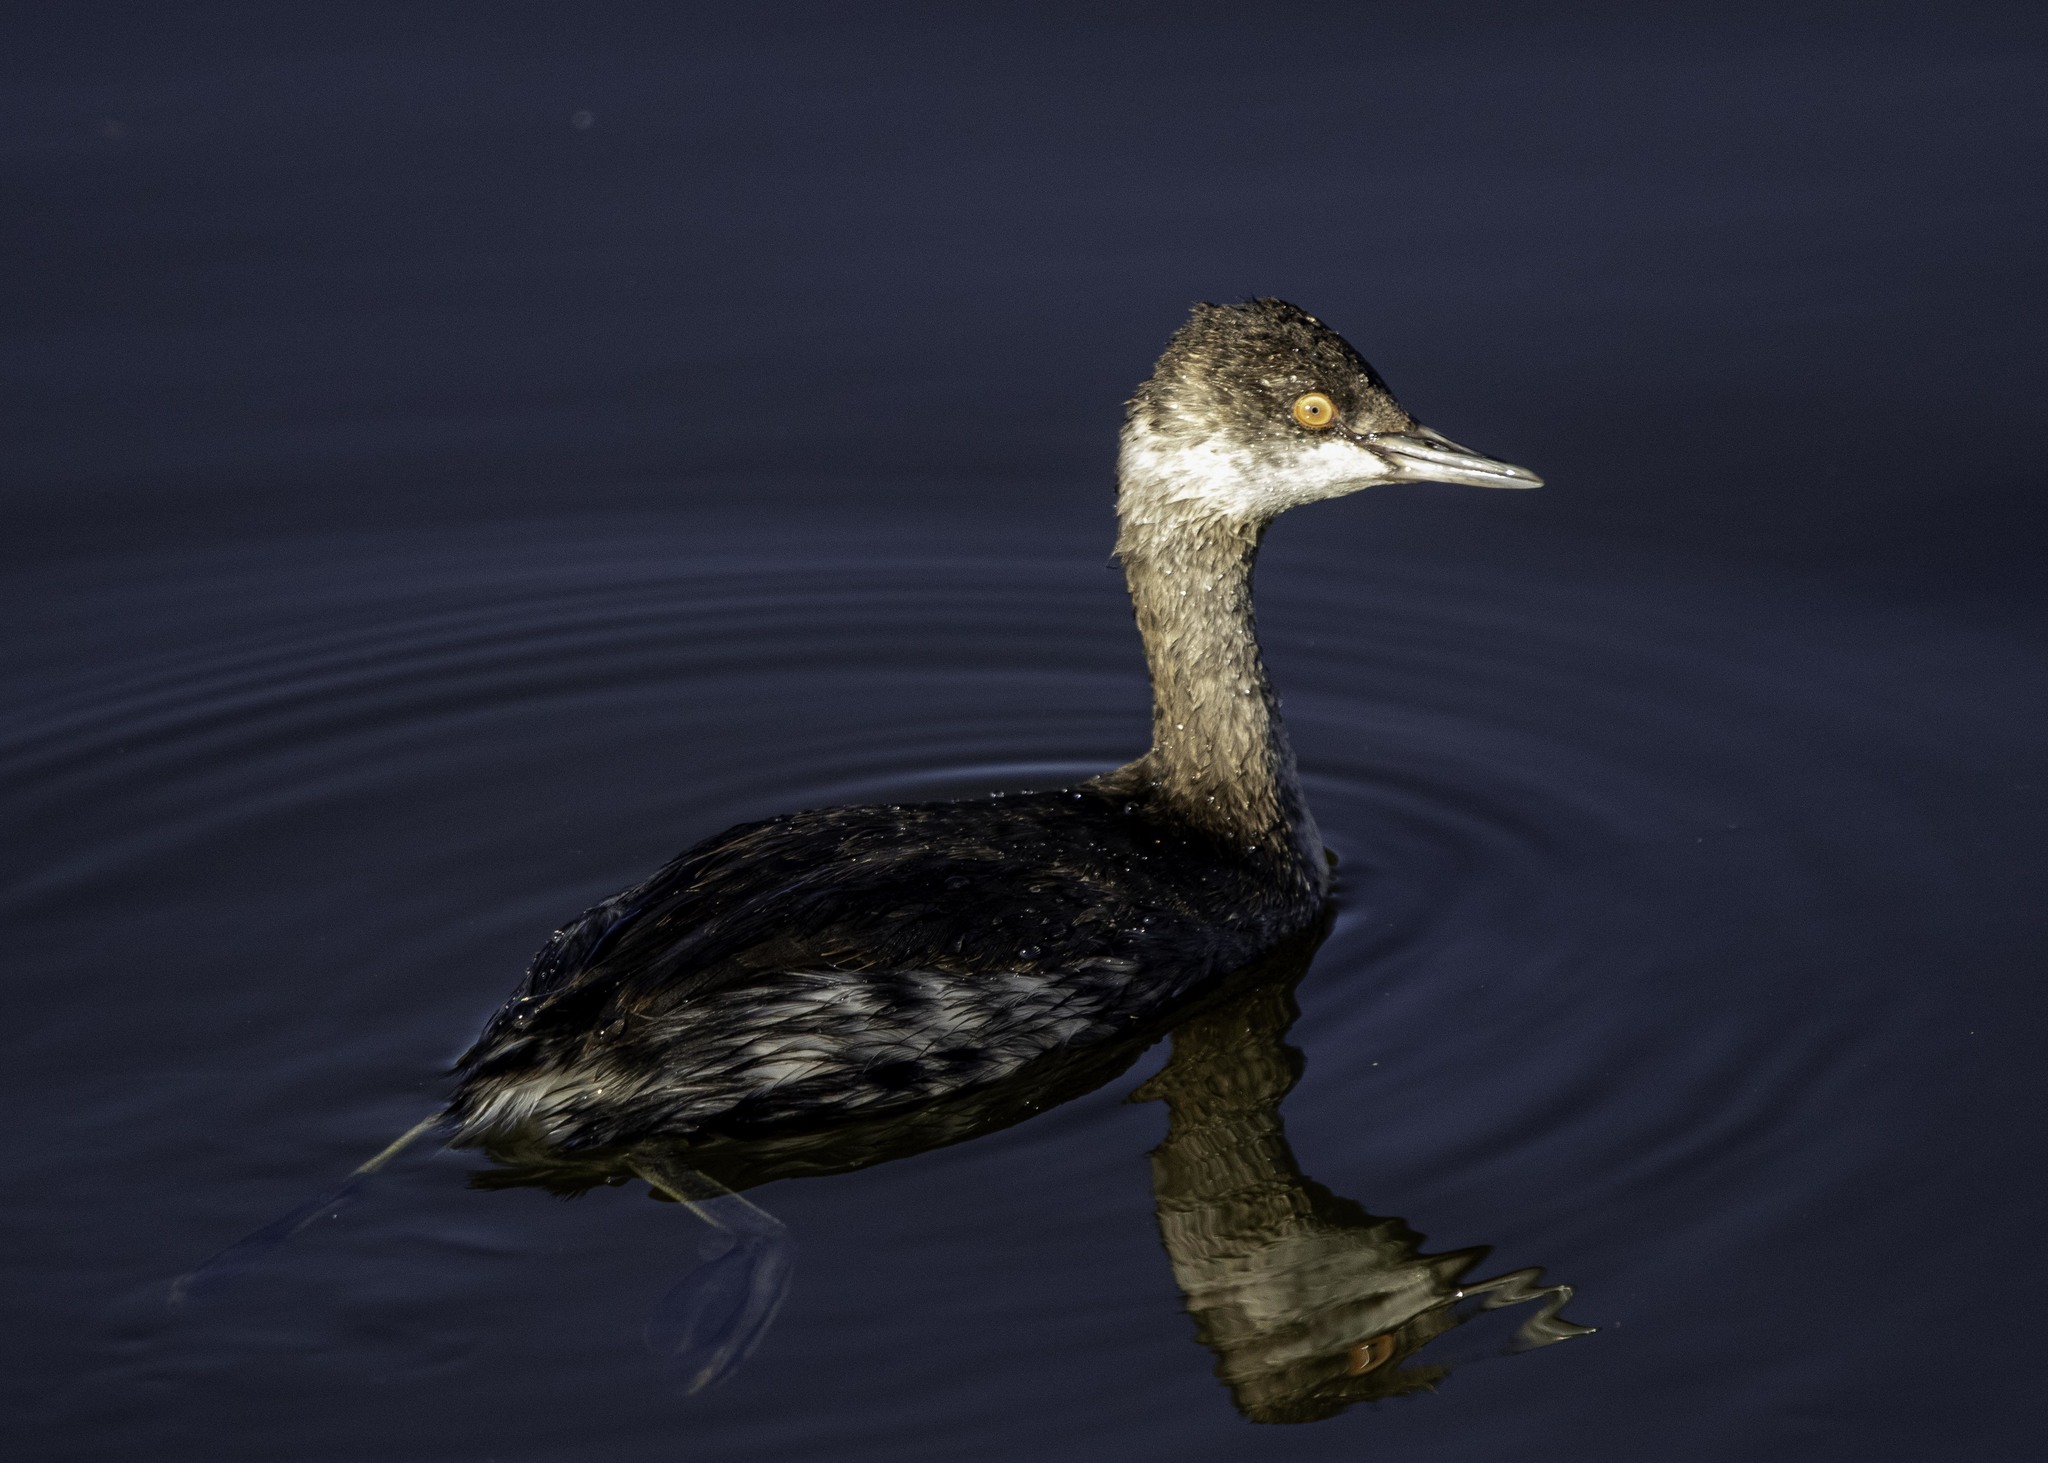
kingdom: Animalia
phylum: Chordata
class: Aves
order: Podicipediformes
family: Podicipedidae
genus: Podiceps
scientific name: Podiceps nigricollis
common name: Black-necked grebe
